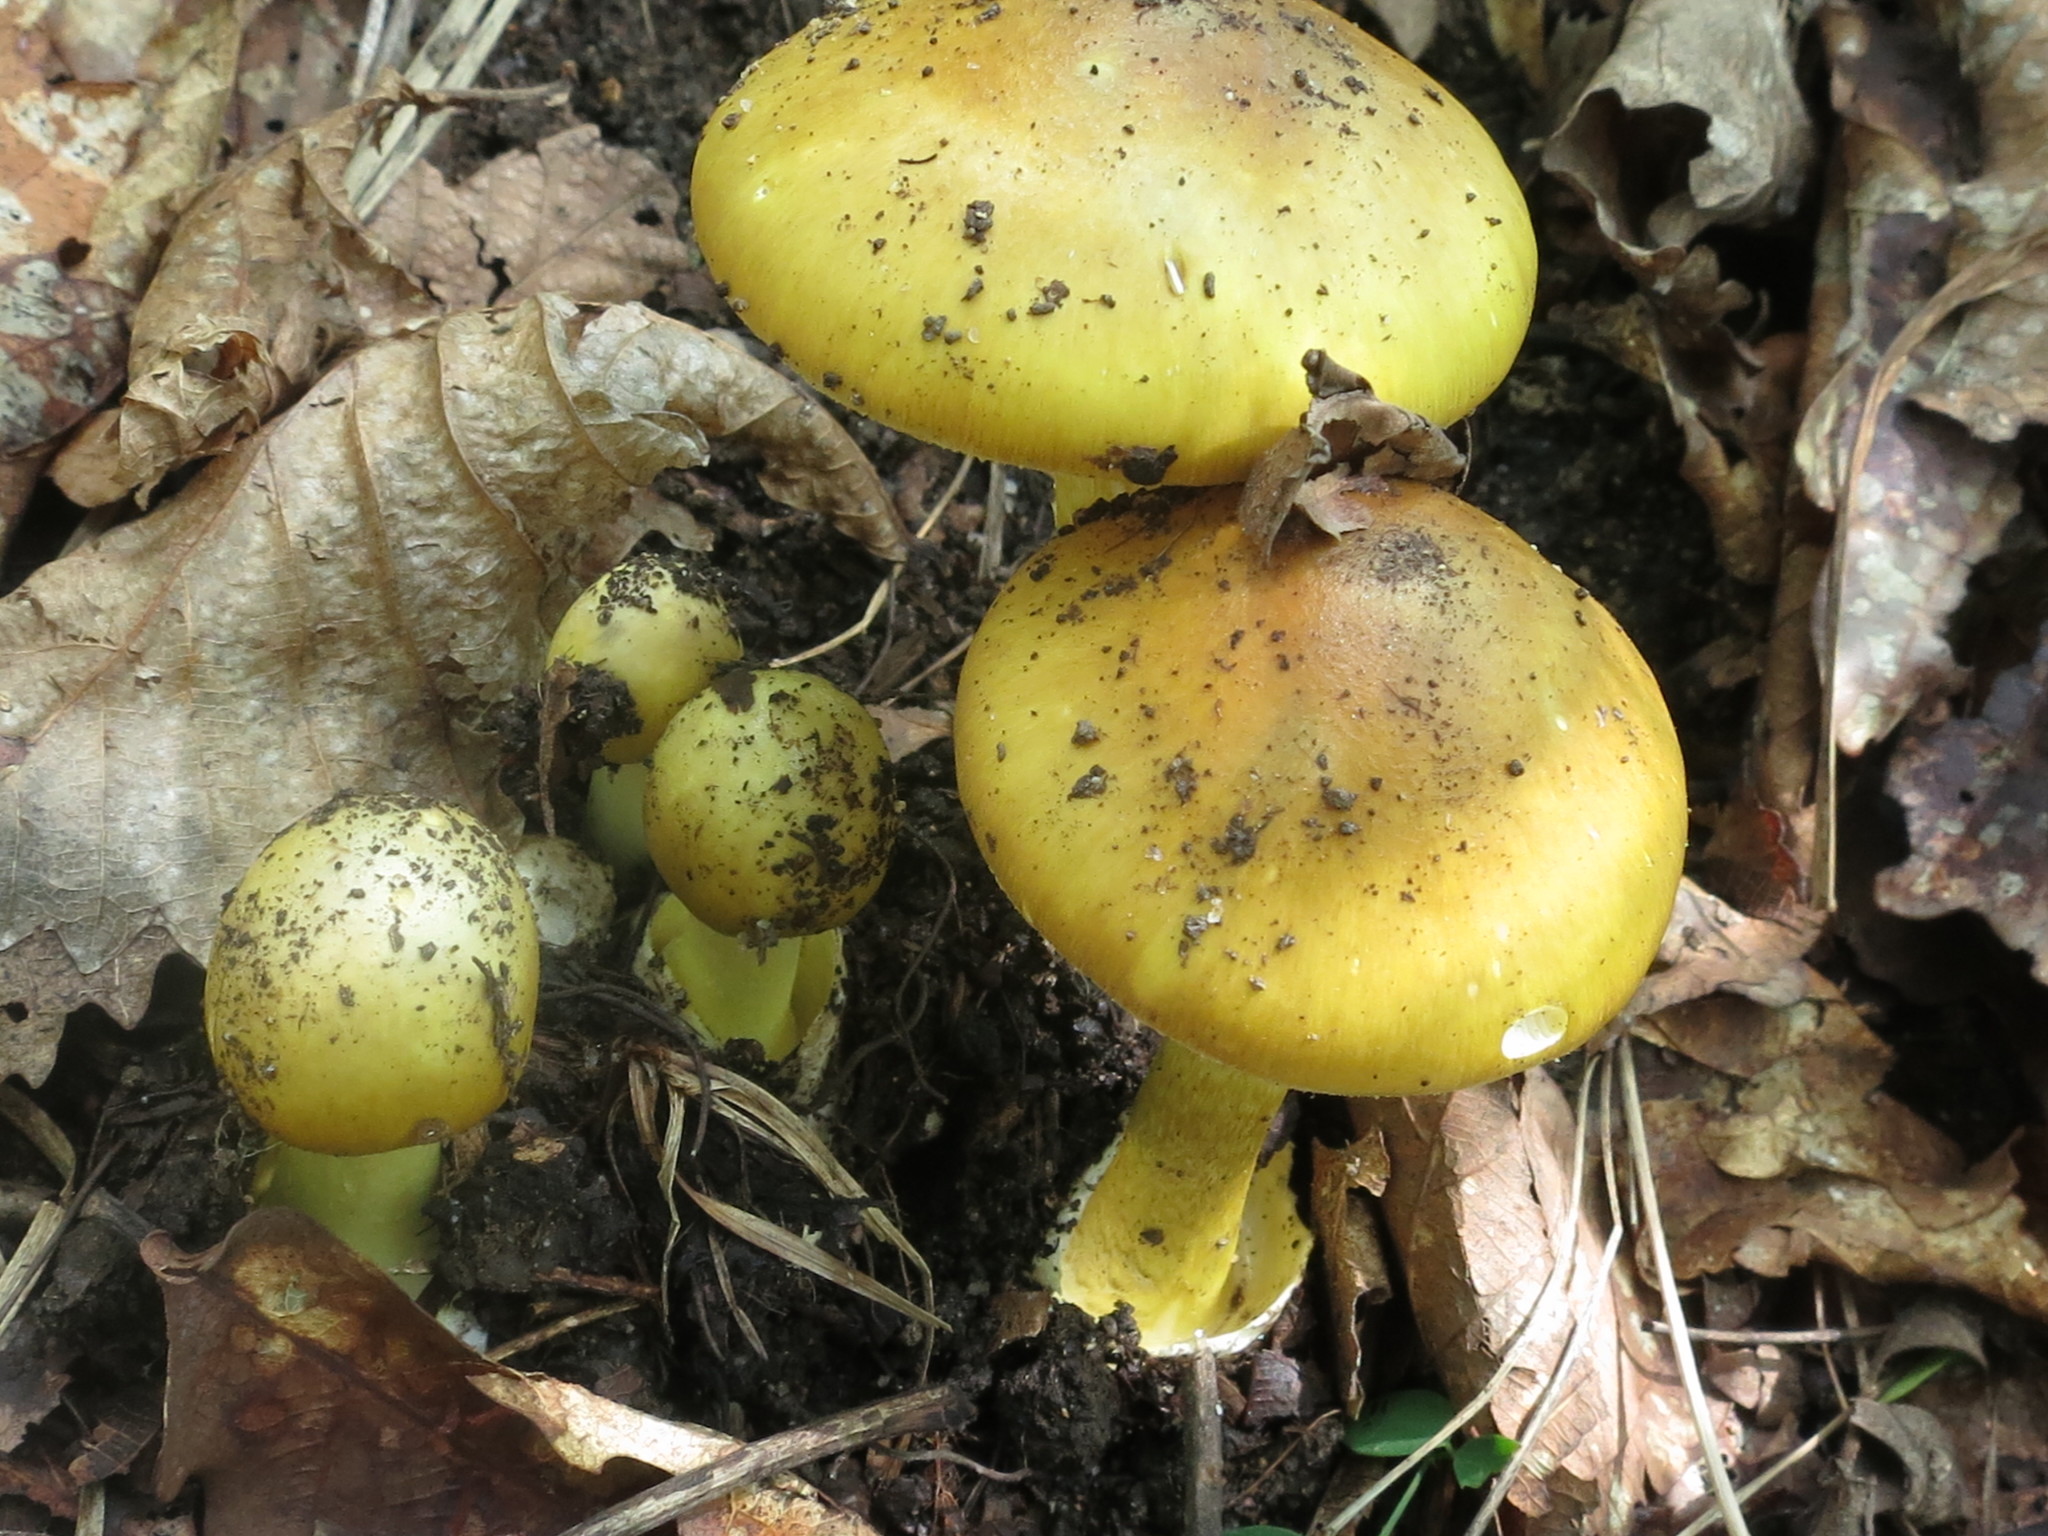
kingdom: Fungi
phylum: Basidiomycota
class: Agaricomycetes
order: Agaricales
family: Amanitaceae
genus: Amanita
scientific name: Amanita phalloides
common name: Death cap
